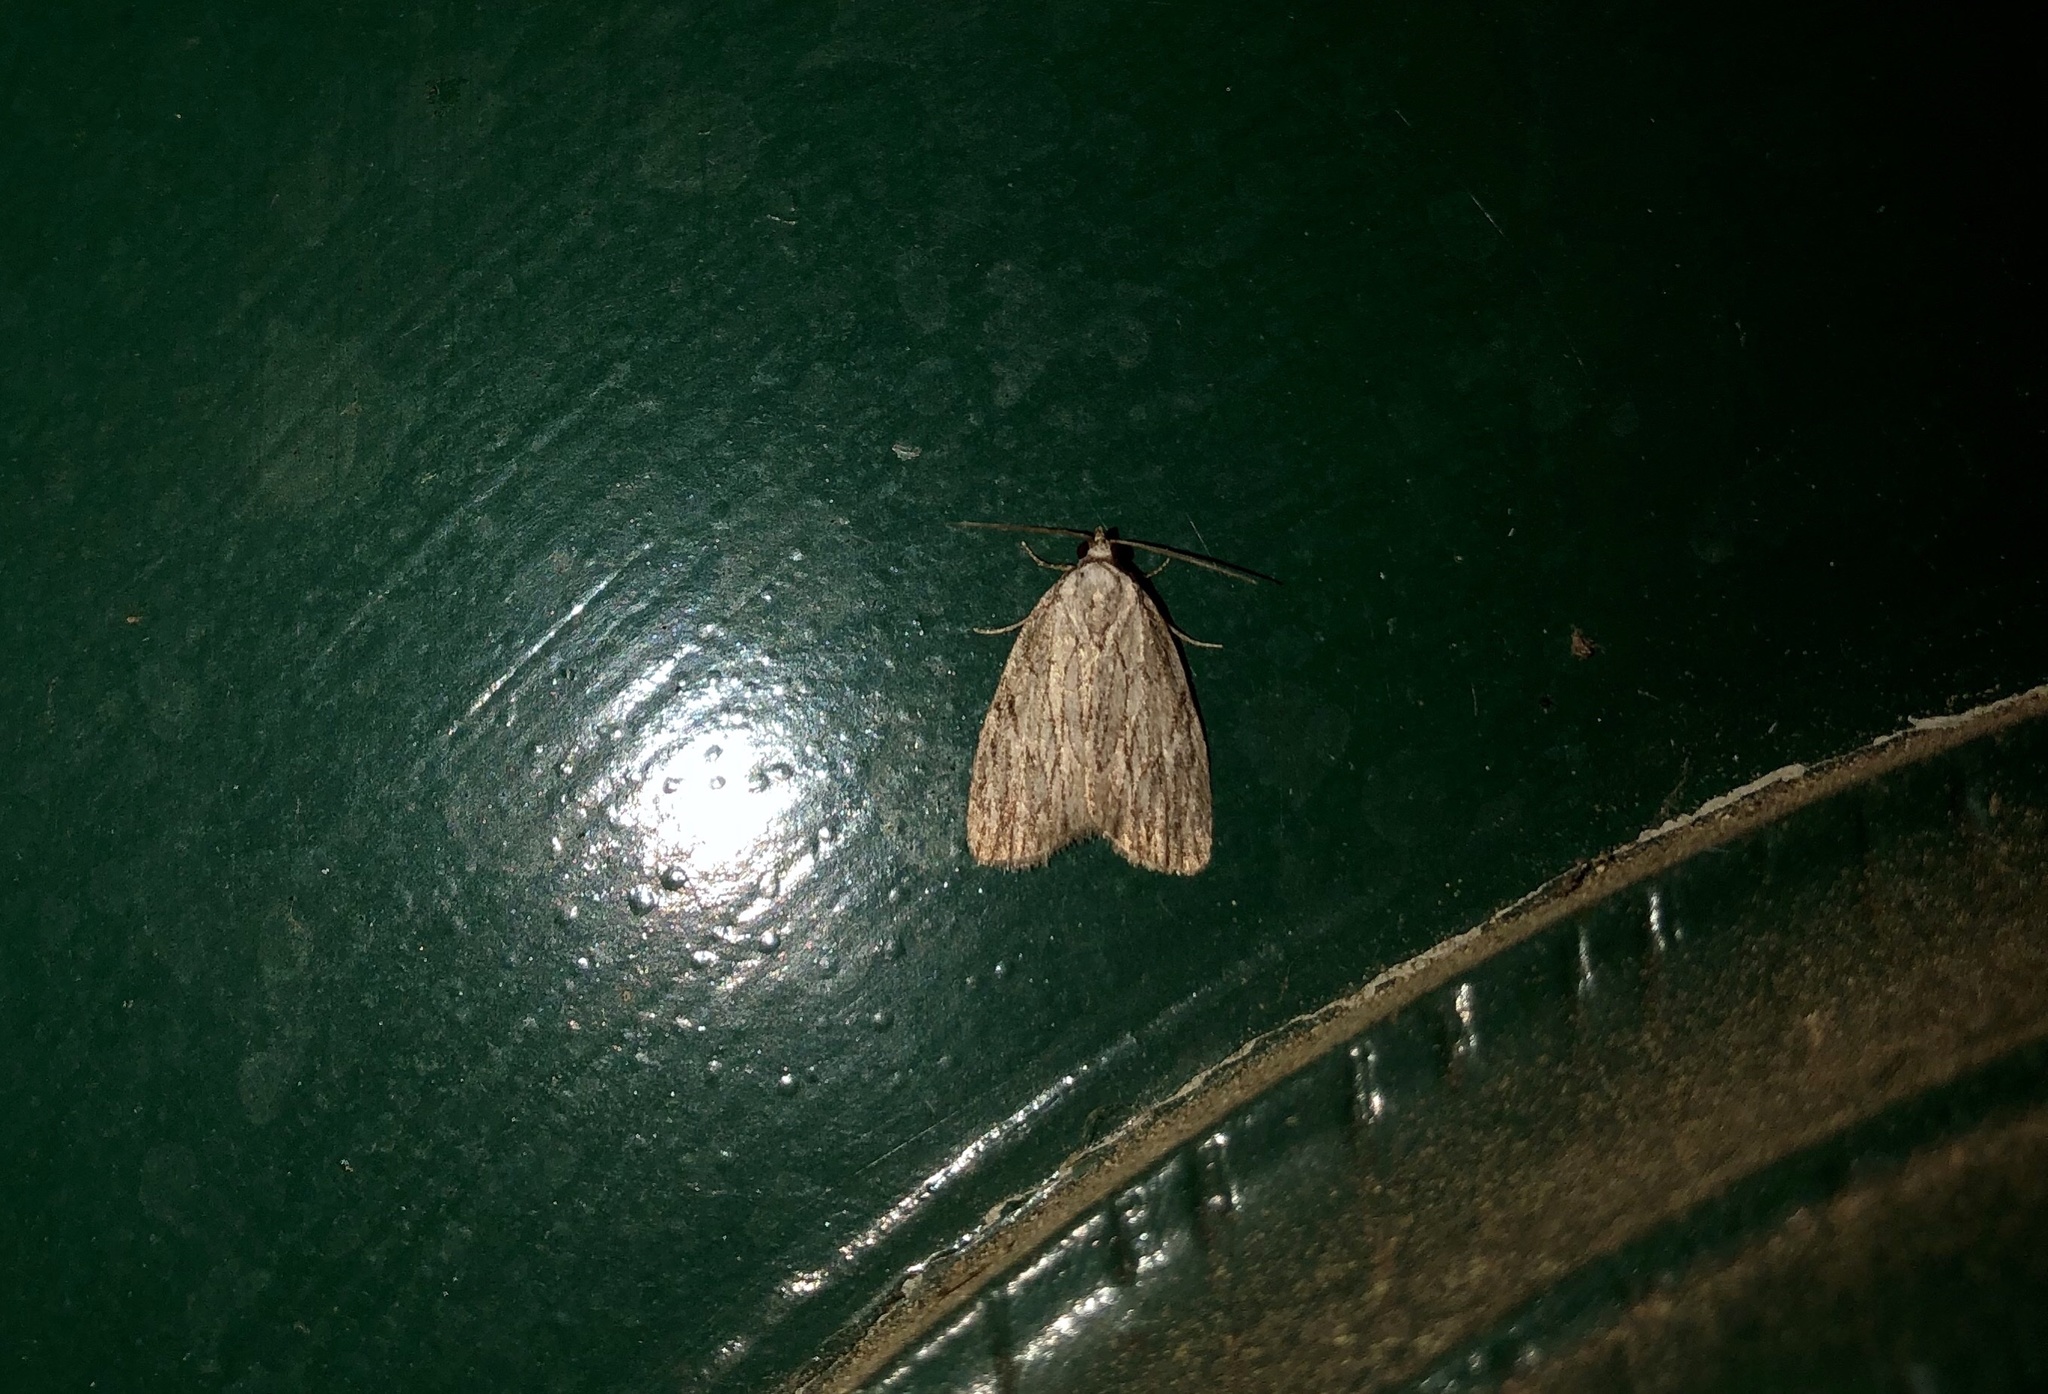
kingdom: Animalia
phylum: Arthropoda
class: Insecta
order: Lepidoptera
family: Noctuidae
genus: Balsa
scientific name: Balsa tristrigella
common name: Three-lined balsa moth
